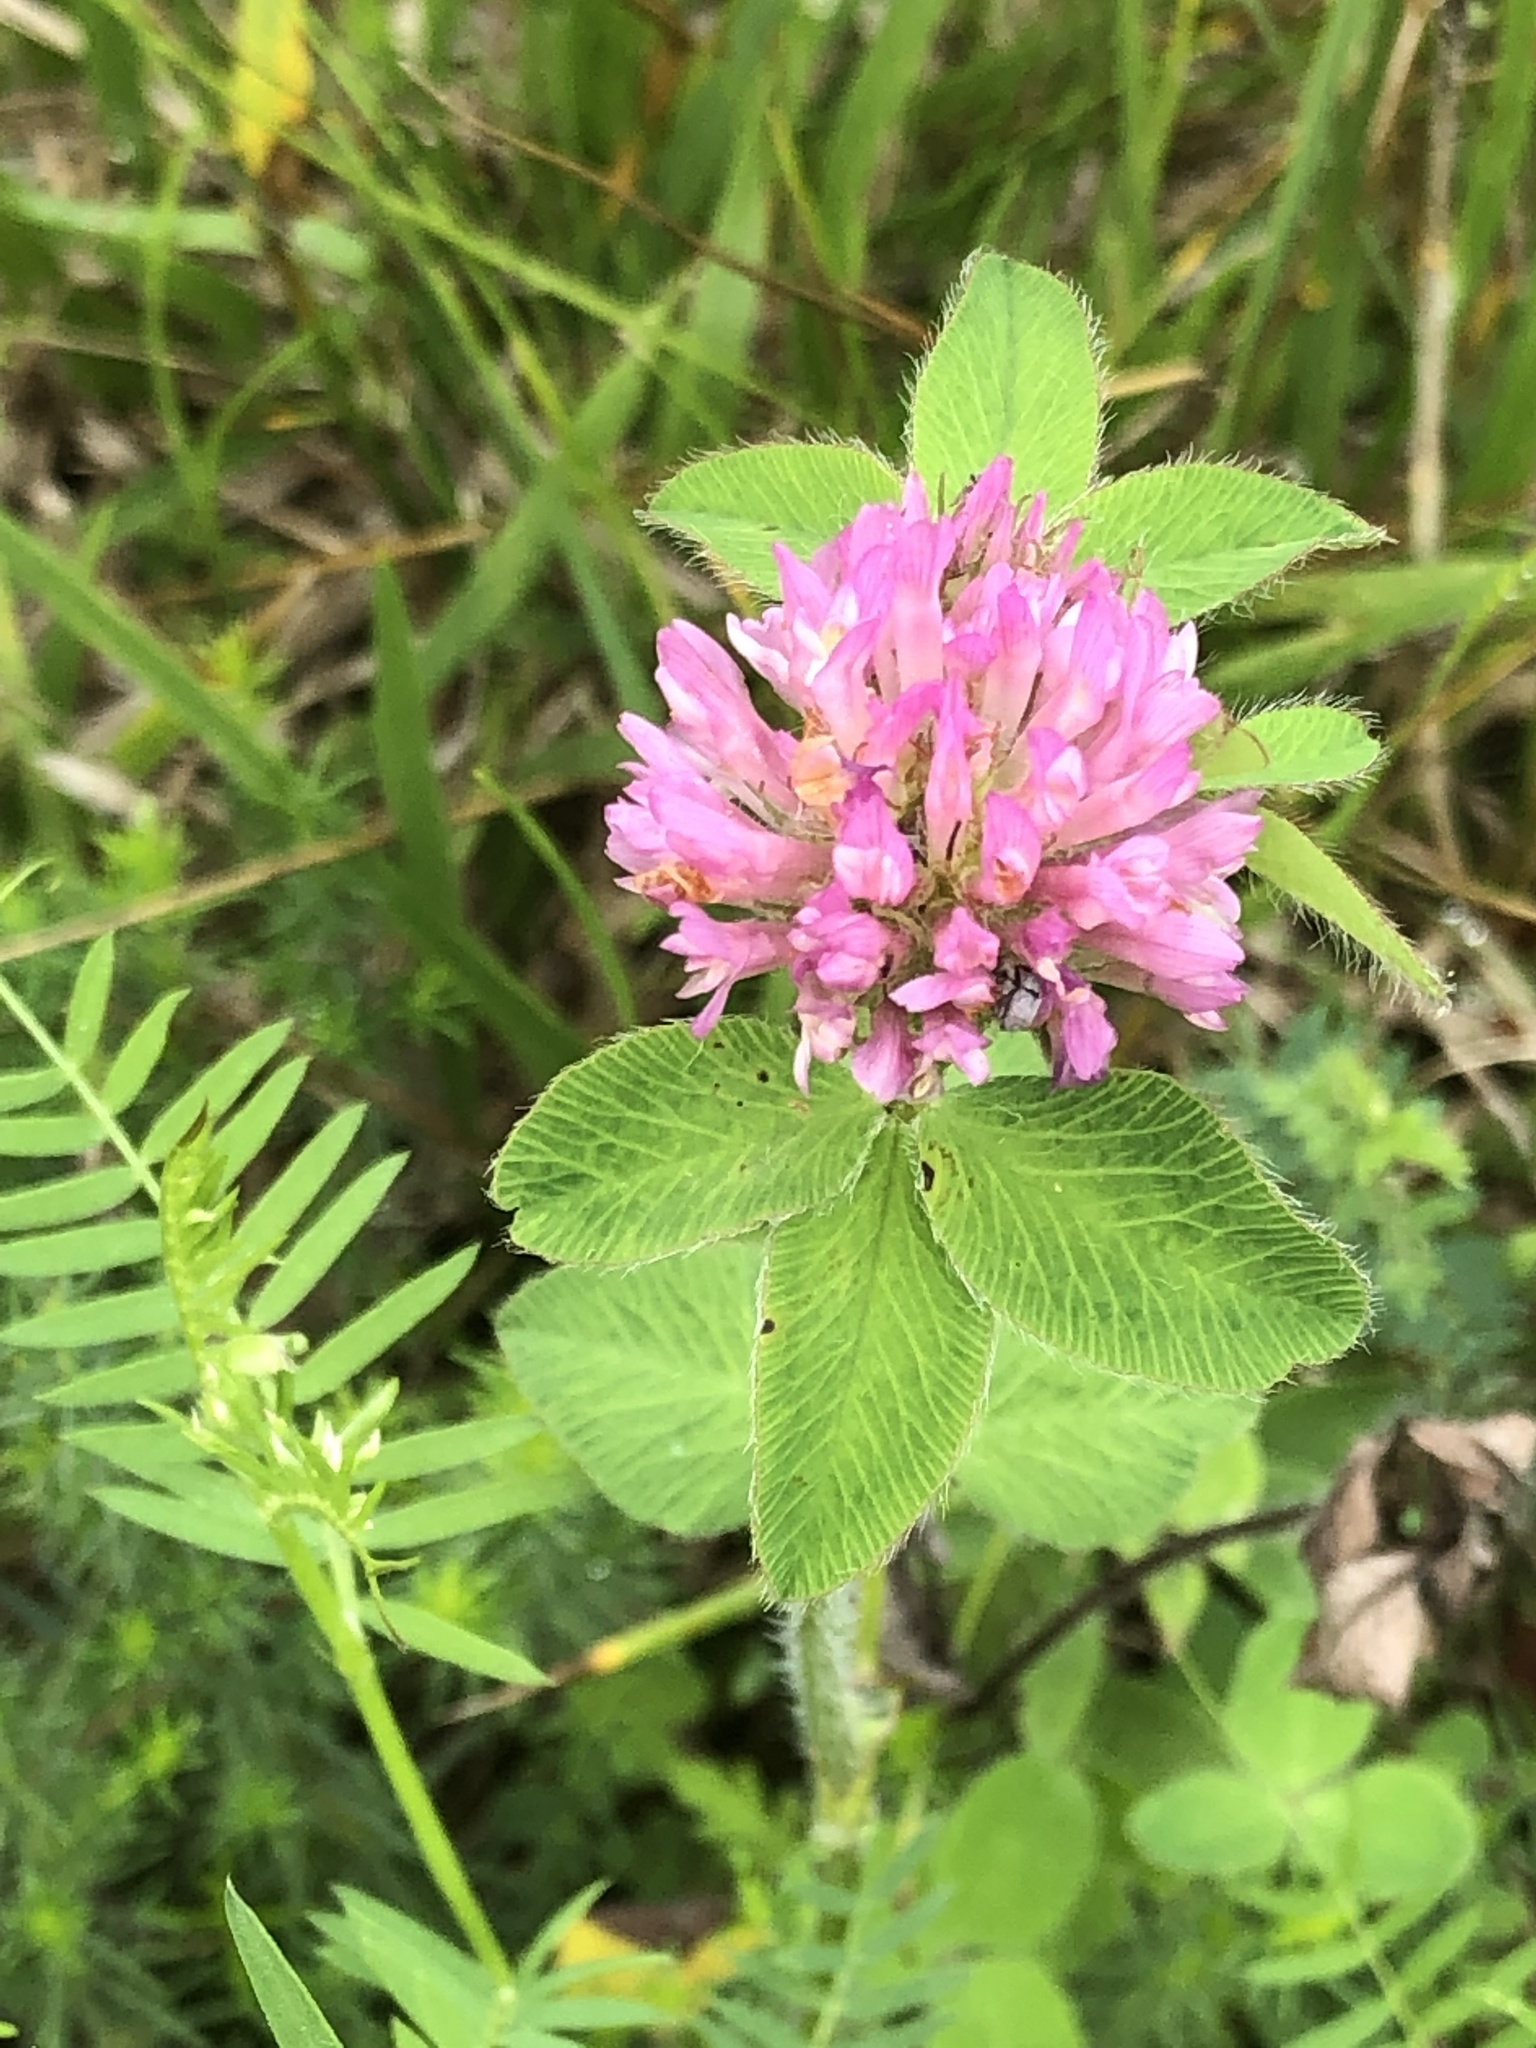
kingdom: Plantae
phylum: Tracheophyta
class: Magnoliopsida
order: Fabales
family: Fabaceae
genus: Trifolium
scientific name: Trifolium pratense
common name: Red clover
